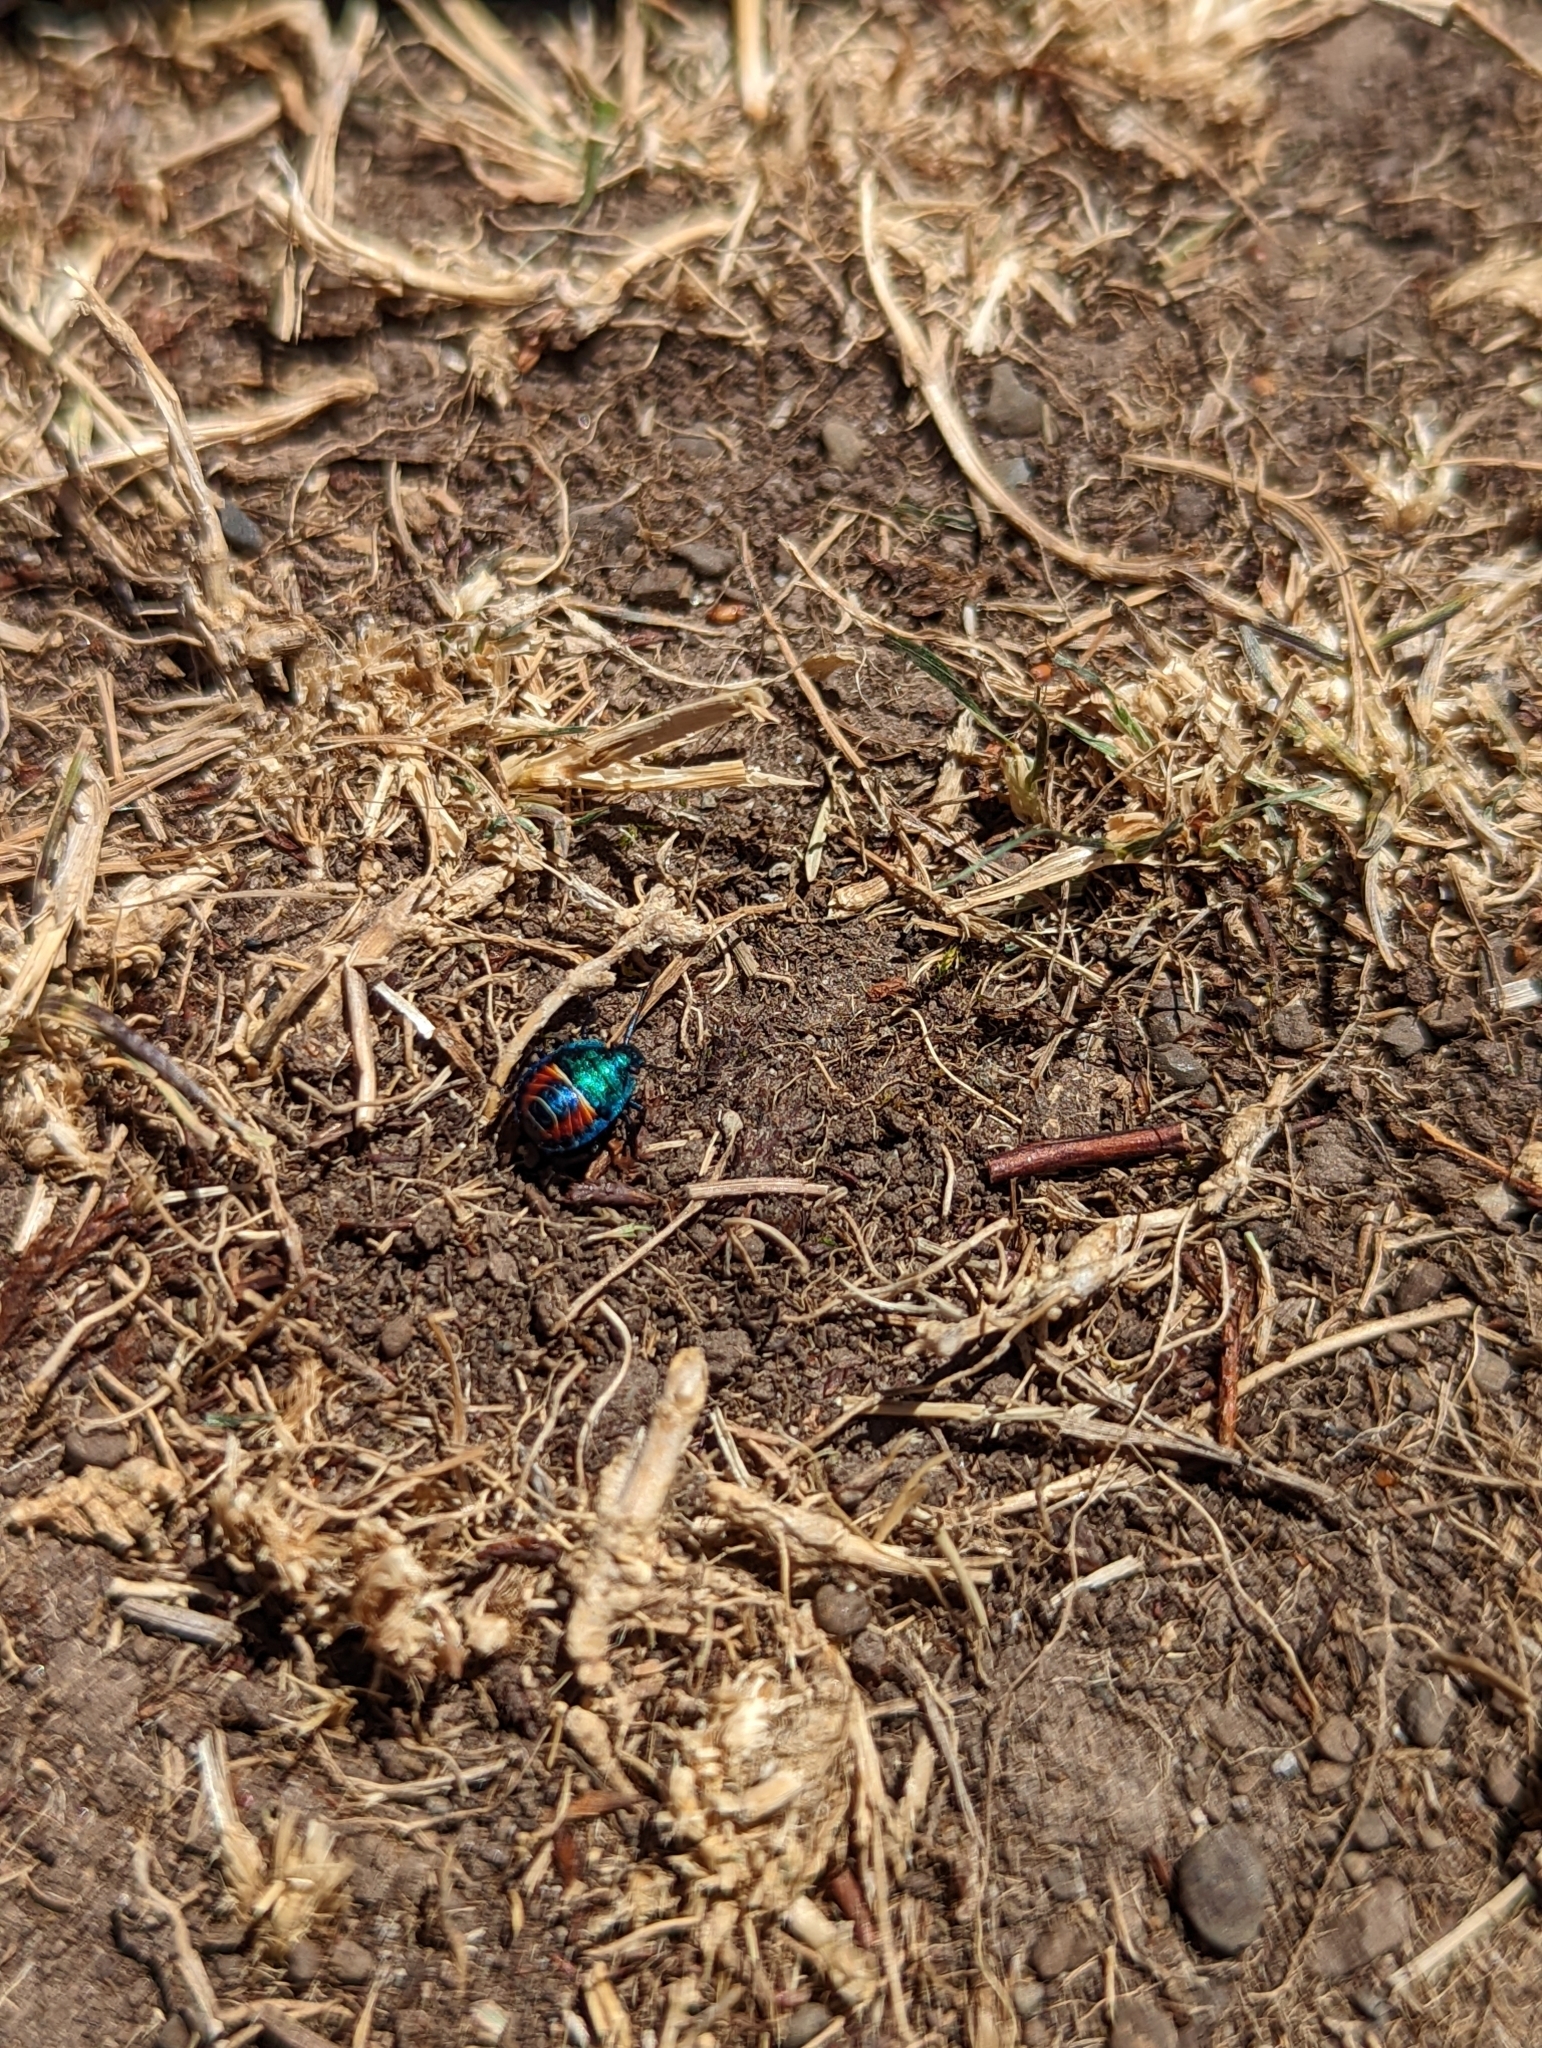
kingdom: Animalia
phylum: Arthropoda
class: Insecta
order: Hemiptera
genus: Parajalla
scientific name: Parajalla sanguineosignata
